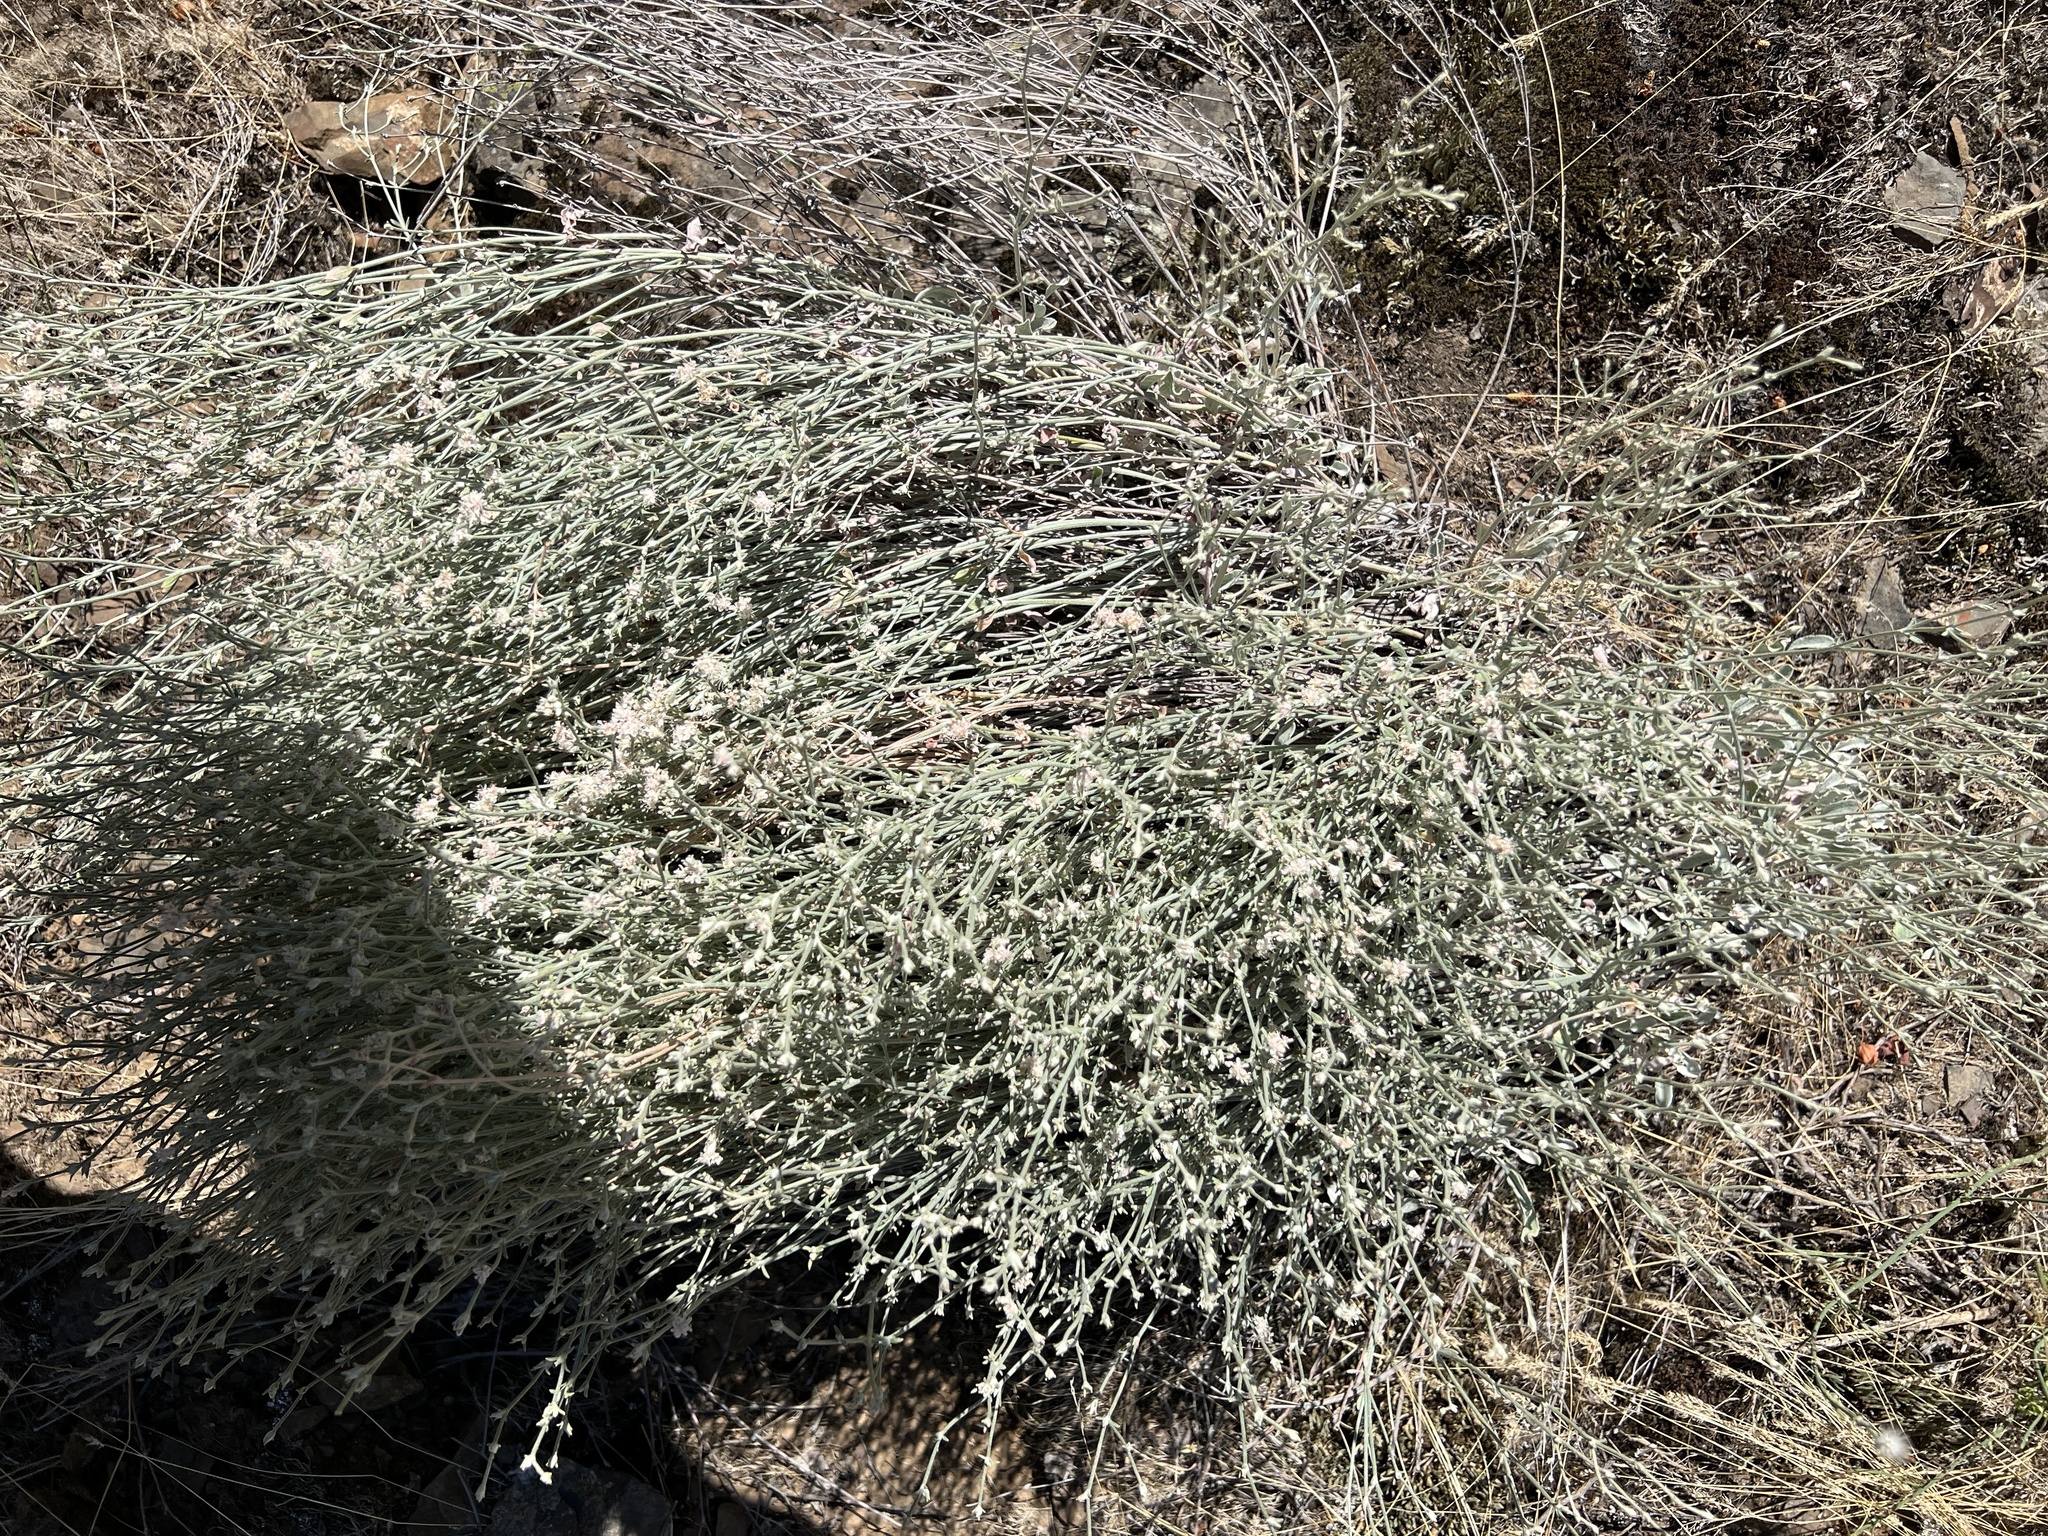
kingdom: Plantae
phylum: Tracheophyta
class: Magnoliopsida
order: Caryophyllales
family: Polygonaceae
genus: Eriogonum
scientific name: Eriogonum niveum
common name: Snow wild buckwheat
